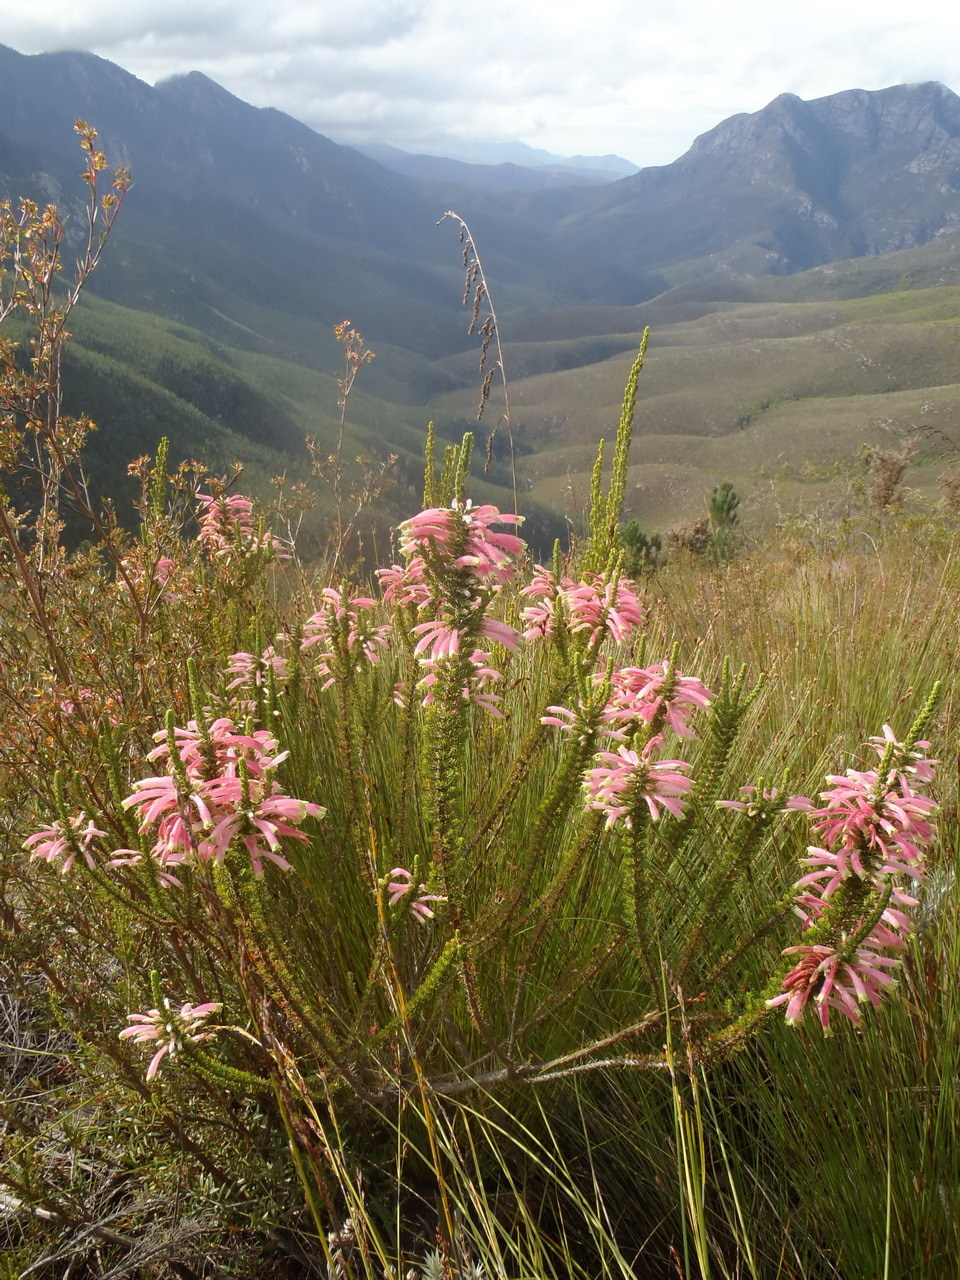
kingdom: Plantae
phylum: Tracheophyta
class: Magnoliopsida
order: Ericales
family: Ericaceae
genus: Erica
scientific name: Erica densifolia
